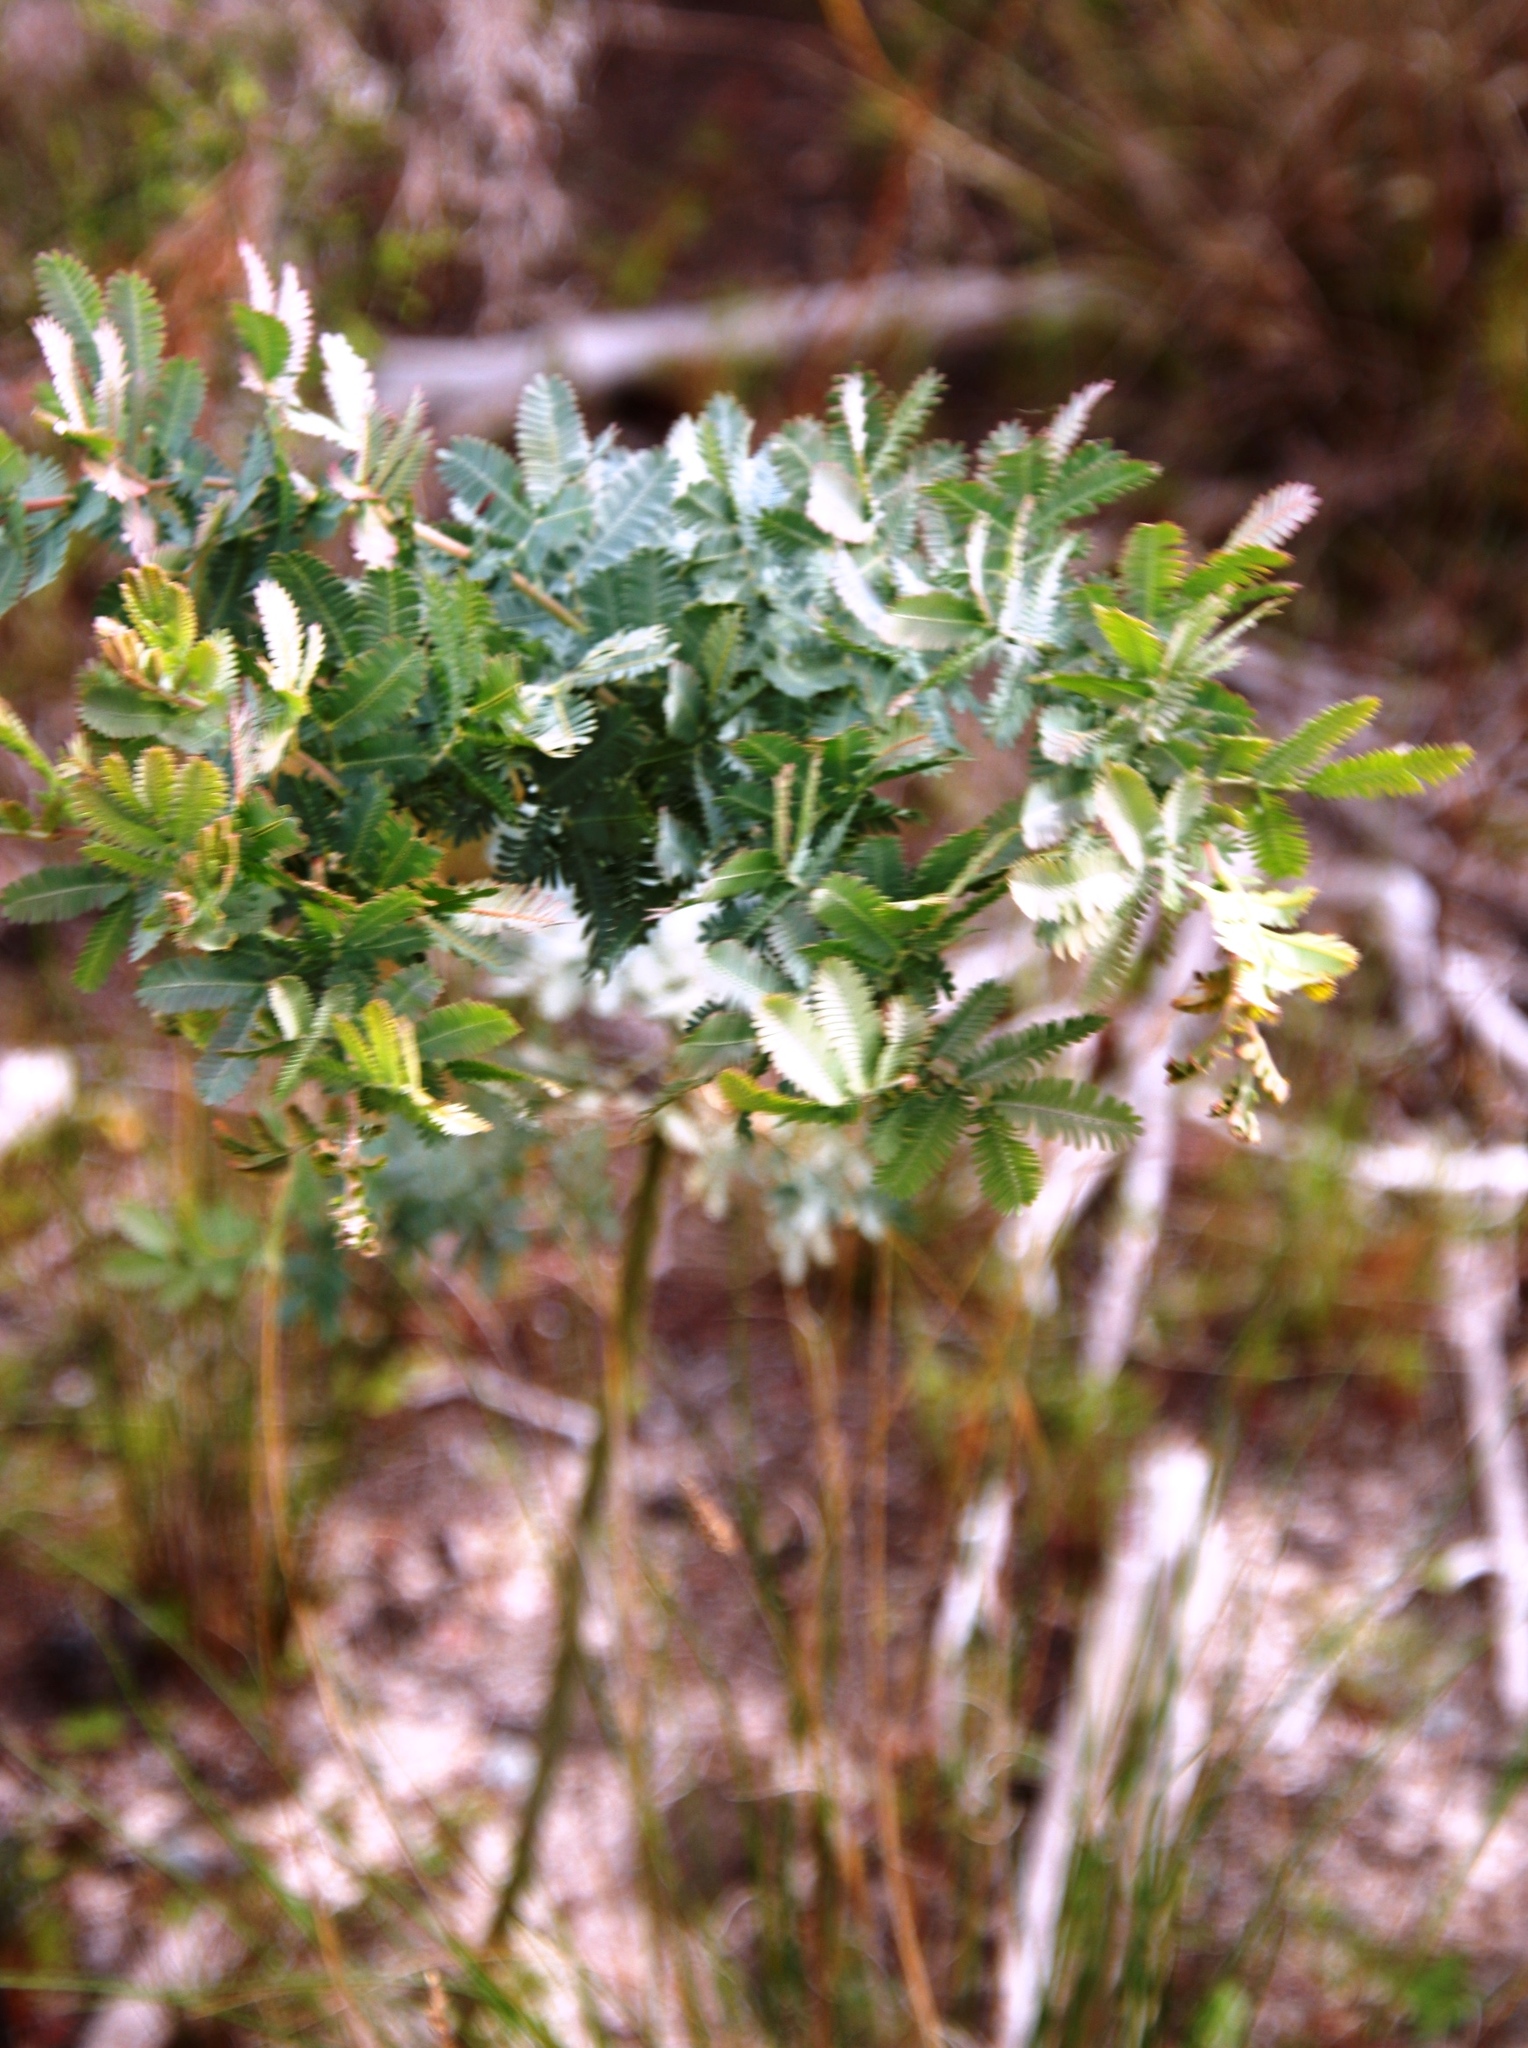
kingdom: Plantae
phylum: Tracheophyta
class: Magnoliopsida
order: Fabales
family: Fabaceae
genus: Acacia
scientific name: Acacia baileyana
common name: Cootamundra wattle
